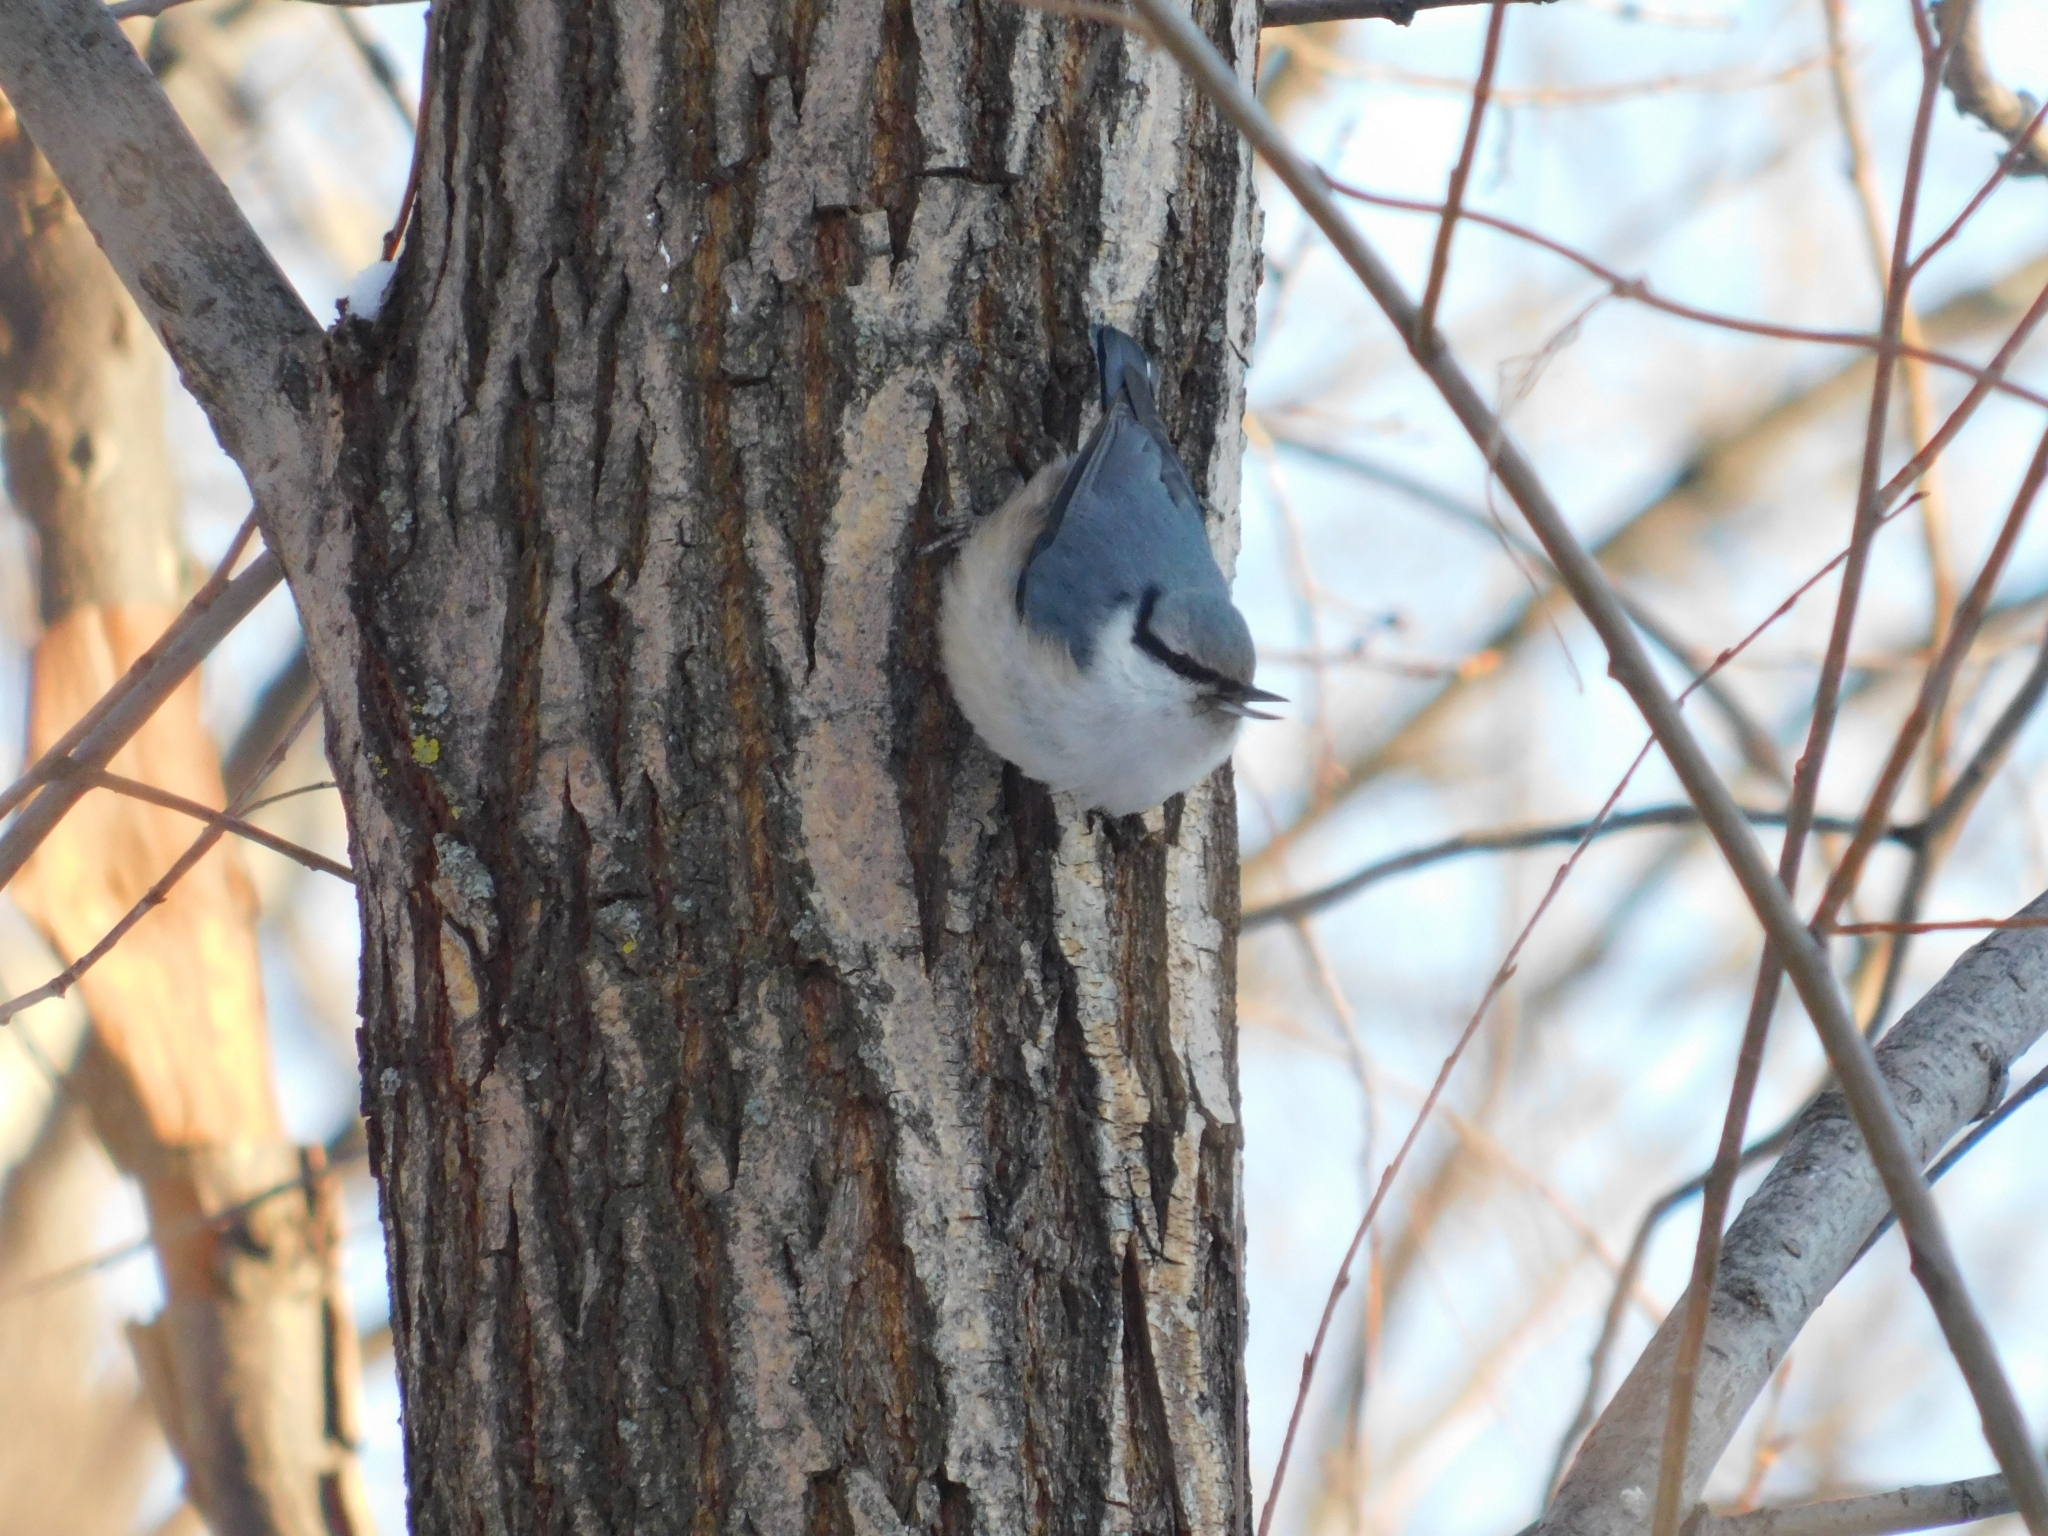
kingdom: Animalia
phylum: Chordata
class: Aves
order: Passeriformes
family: Sittidae
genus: Sitta
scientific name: Sitta europaea
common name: Eurasian nuthatch
